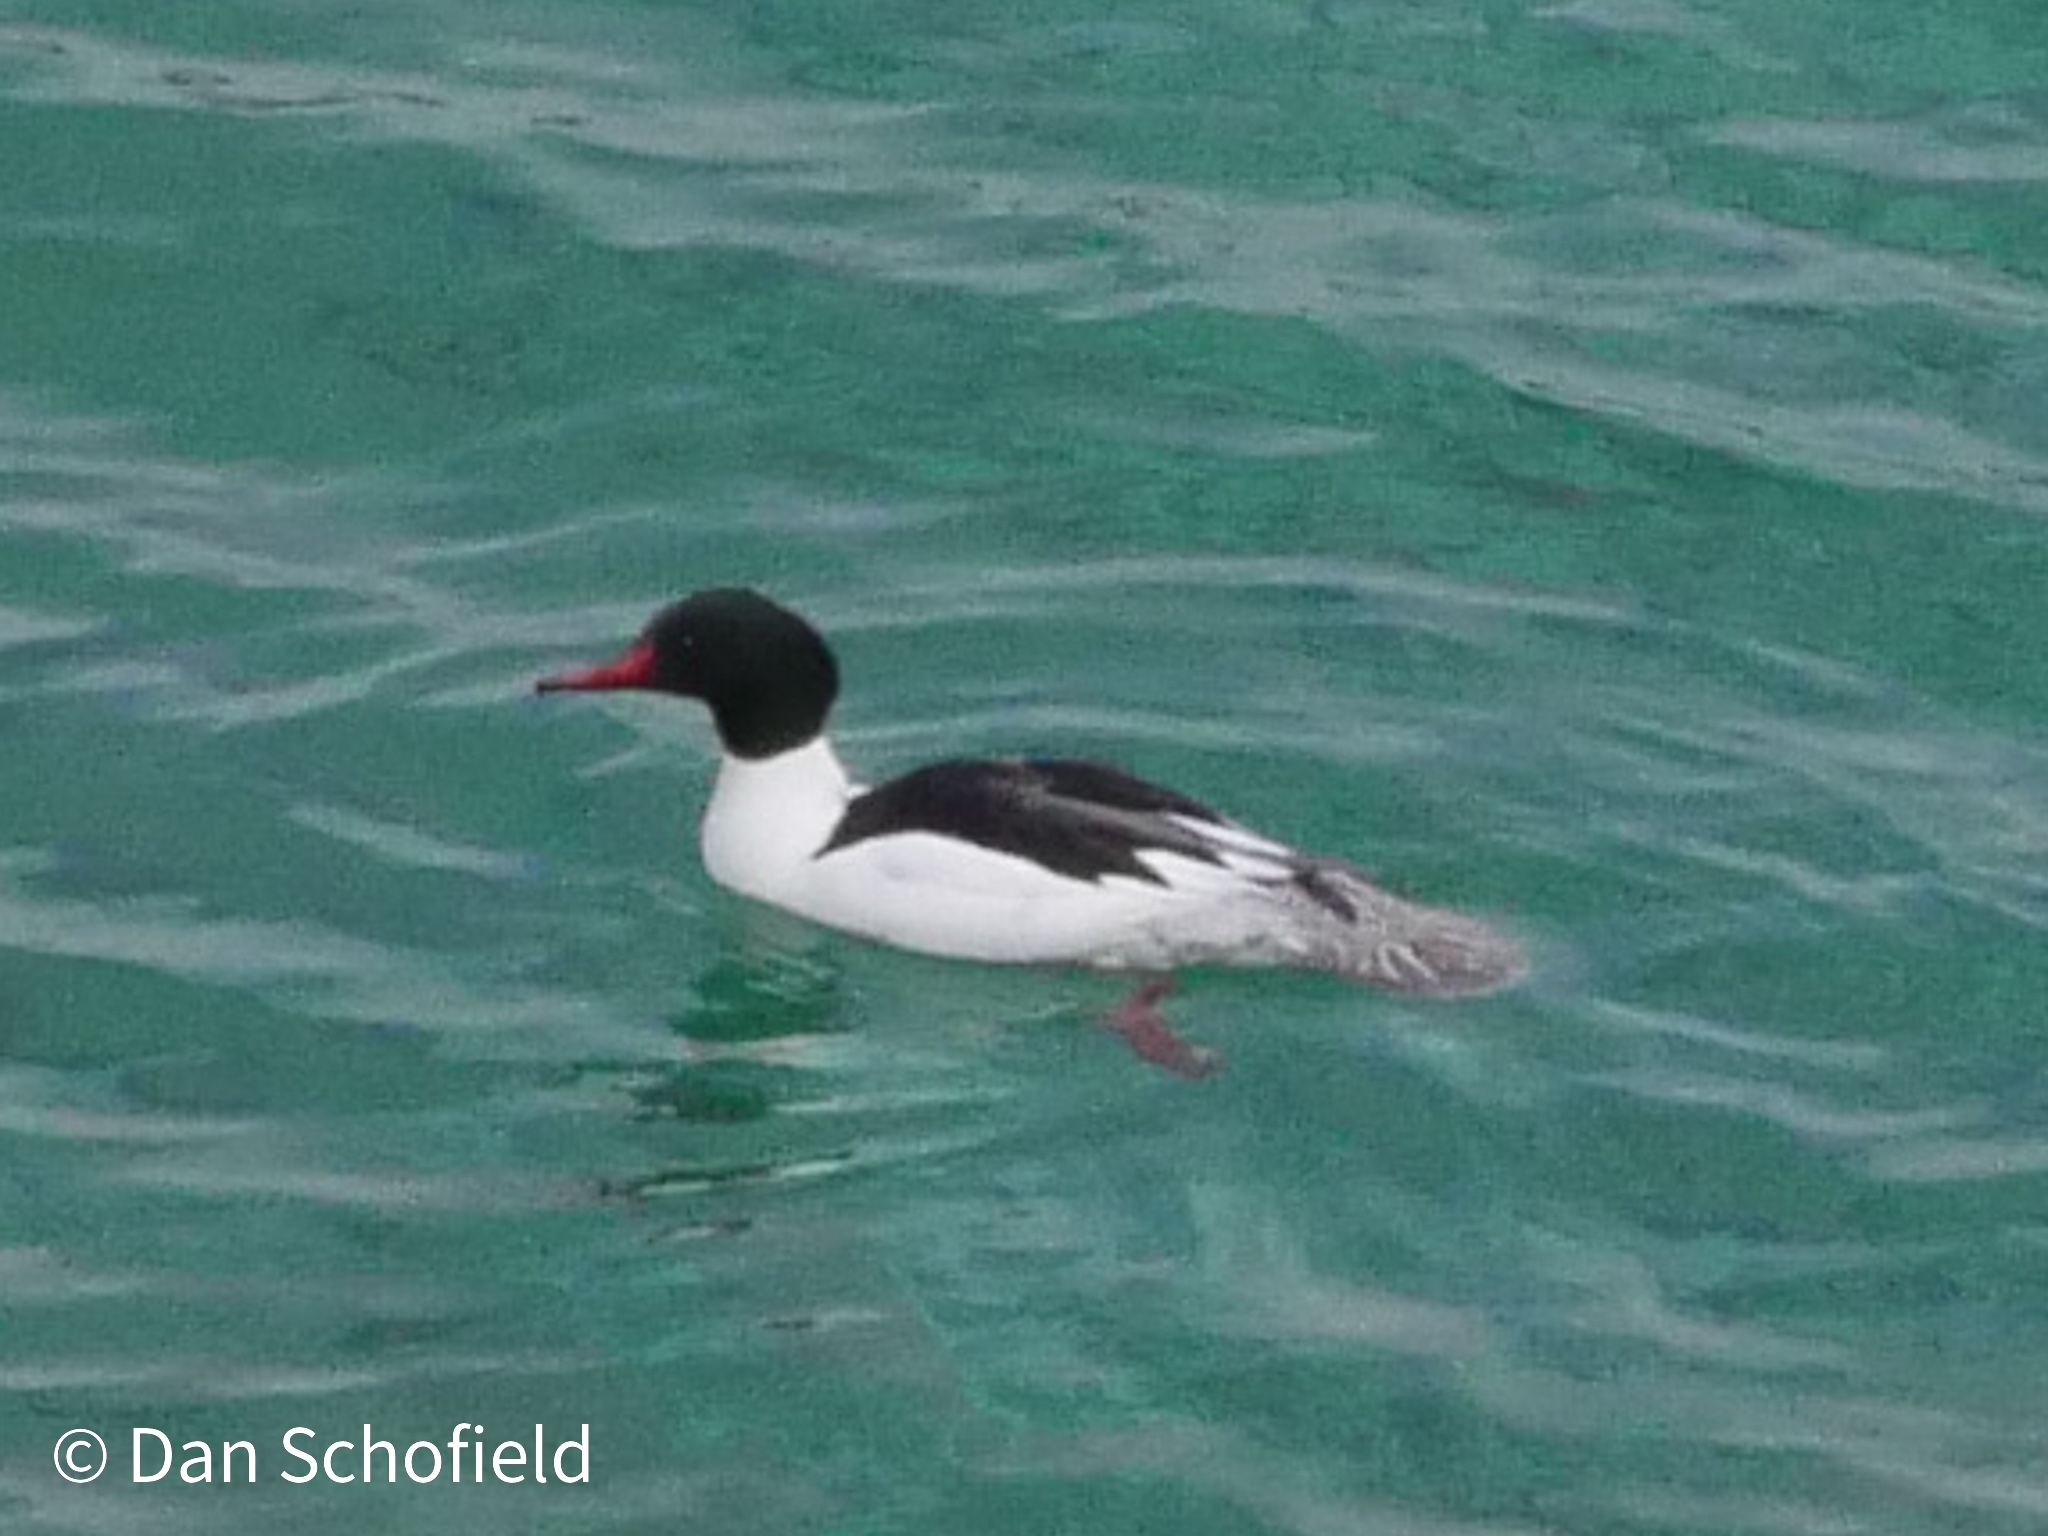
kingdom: Animalia
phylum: Chordata
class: Aves
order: Anseriformes
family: Anatidae
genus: Mergus
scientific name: Mergus merganser
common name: Common merganser
